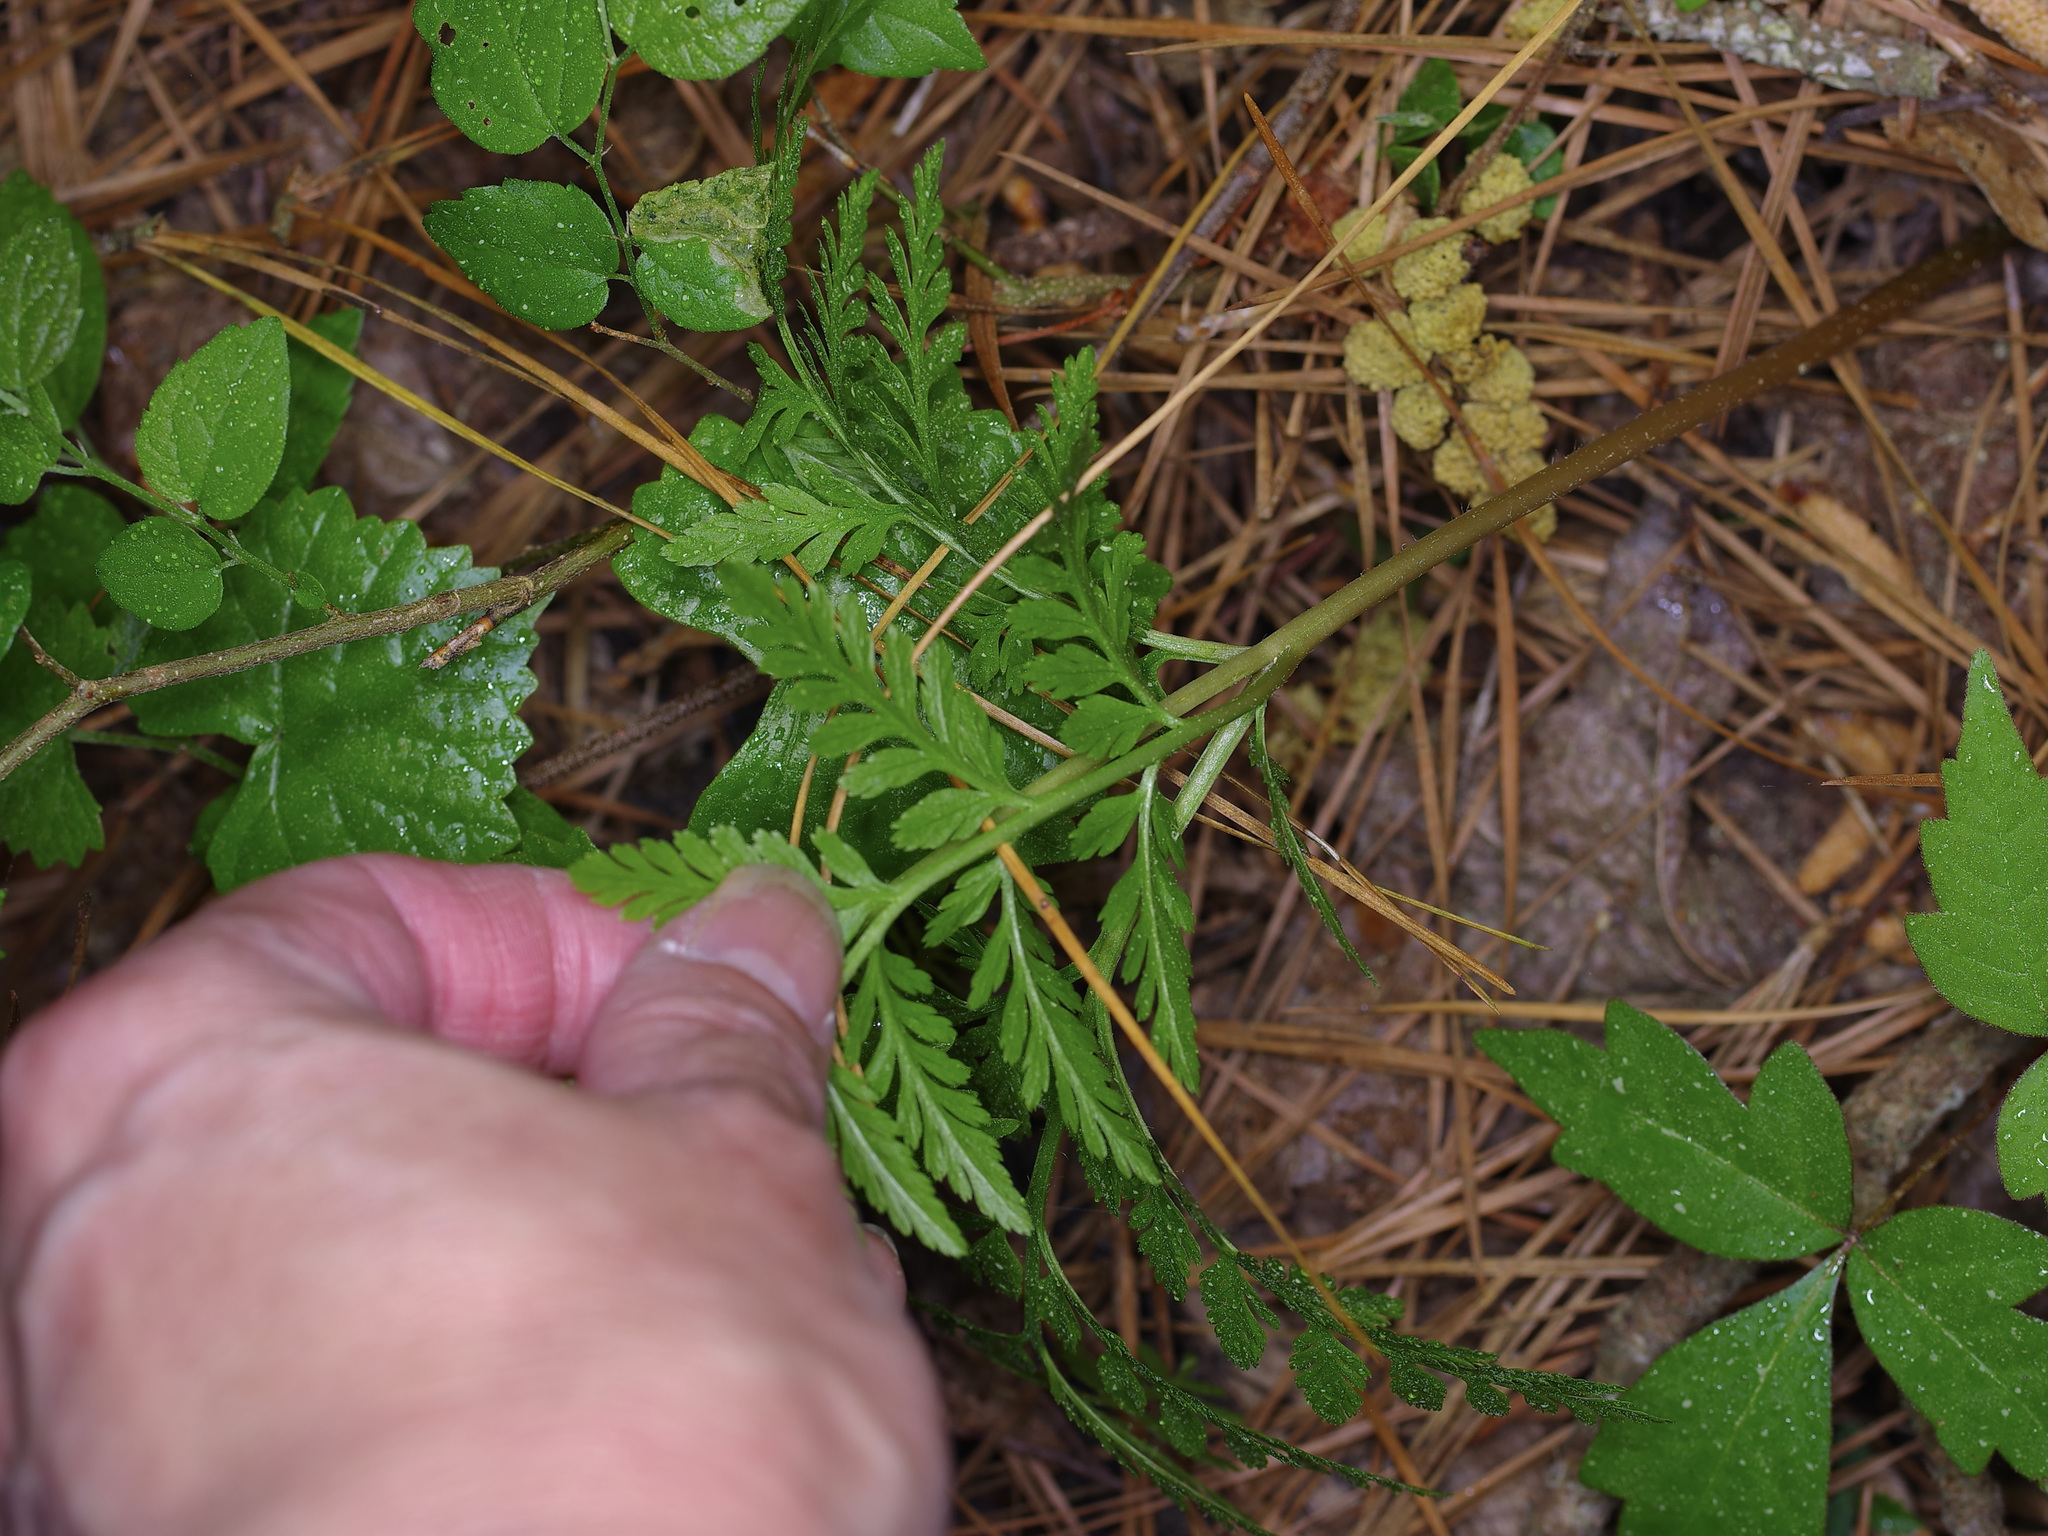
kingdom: Plantae
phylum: Tracheophyta
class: Polypodiopsida
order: Ophioglossales
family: Ophioglossaceae
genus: Botrypus
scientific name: Botrypus virginianus
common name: Common grapefern
